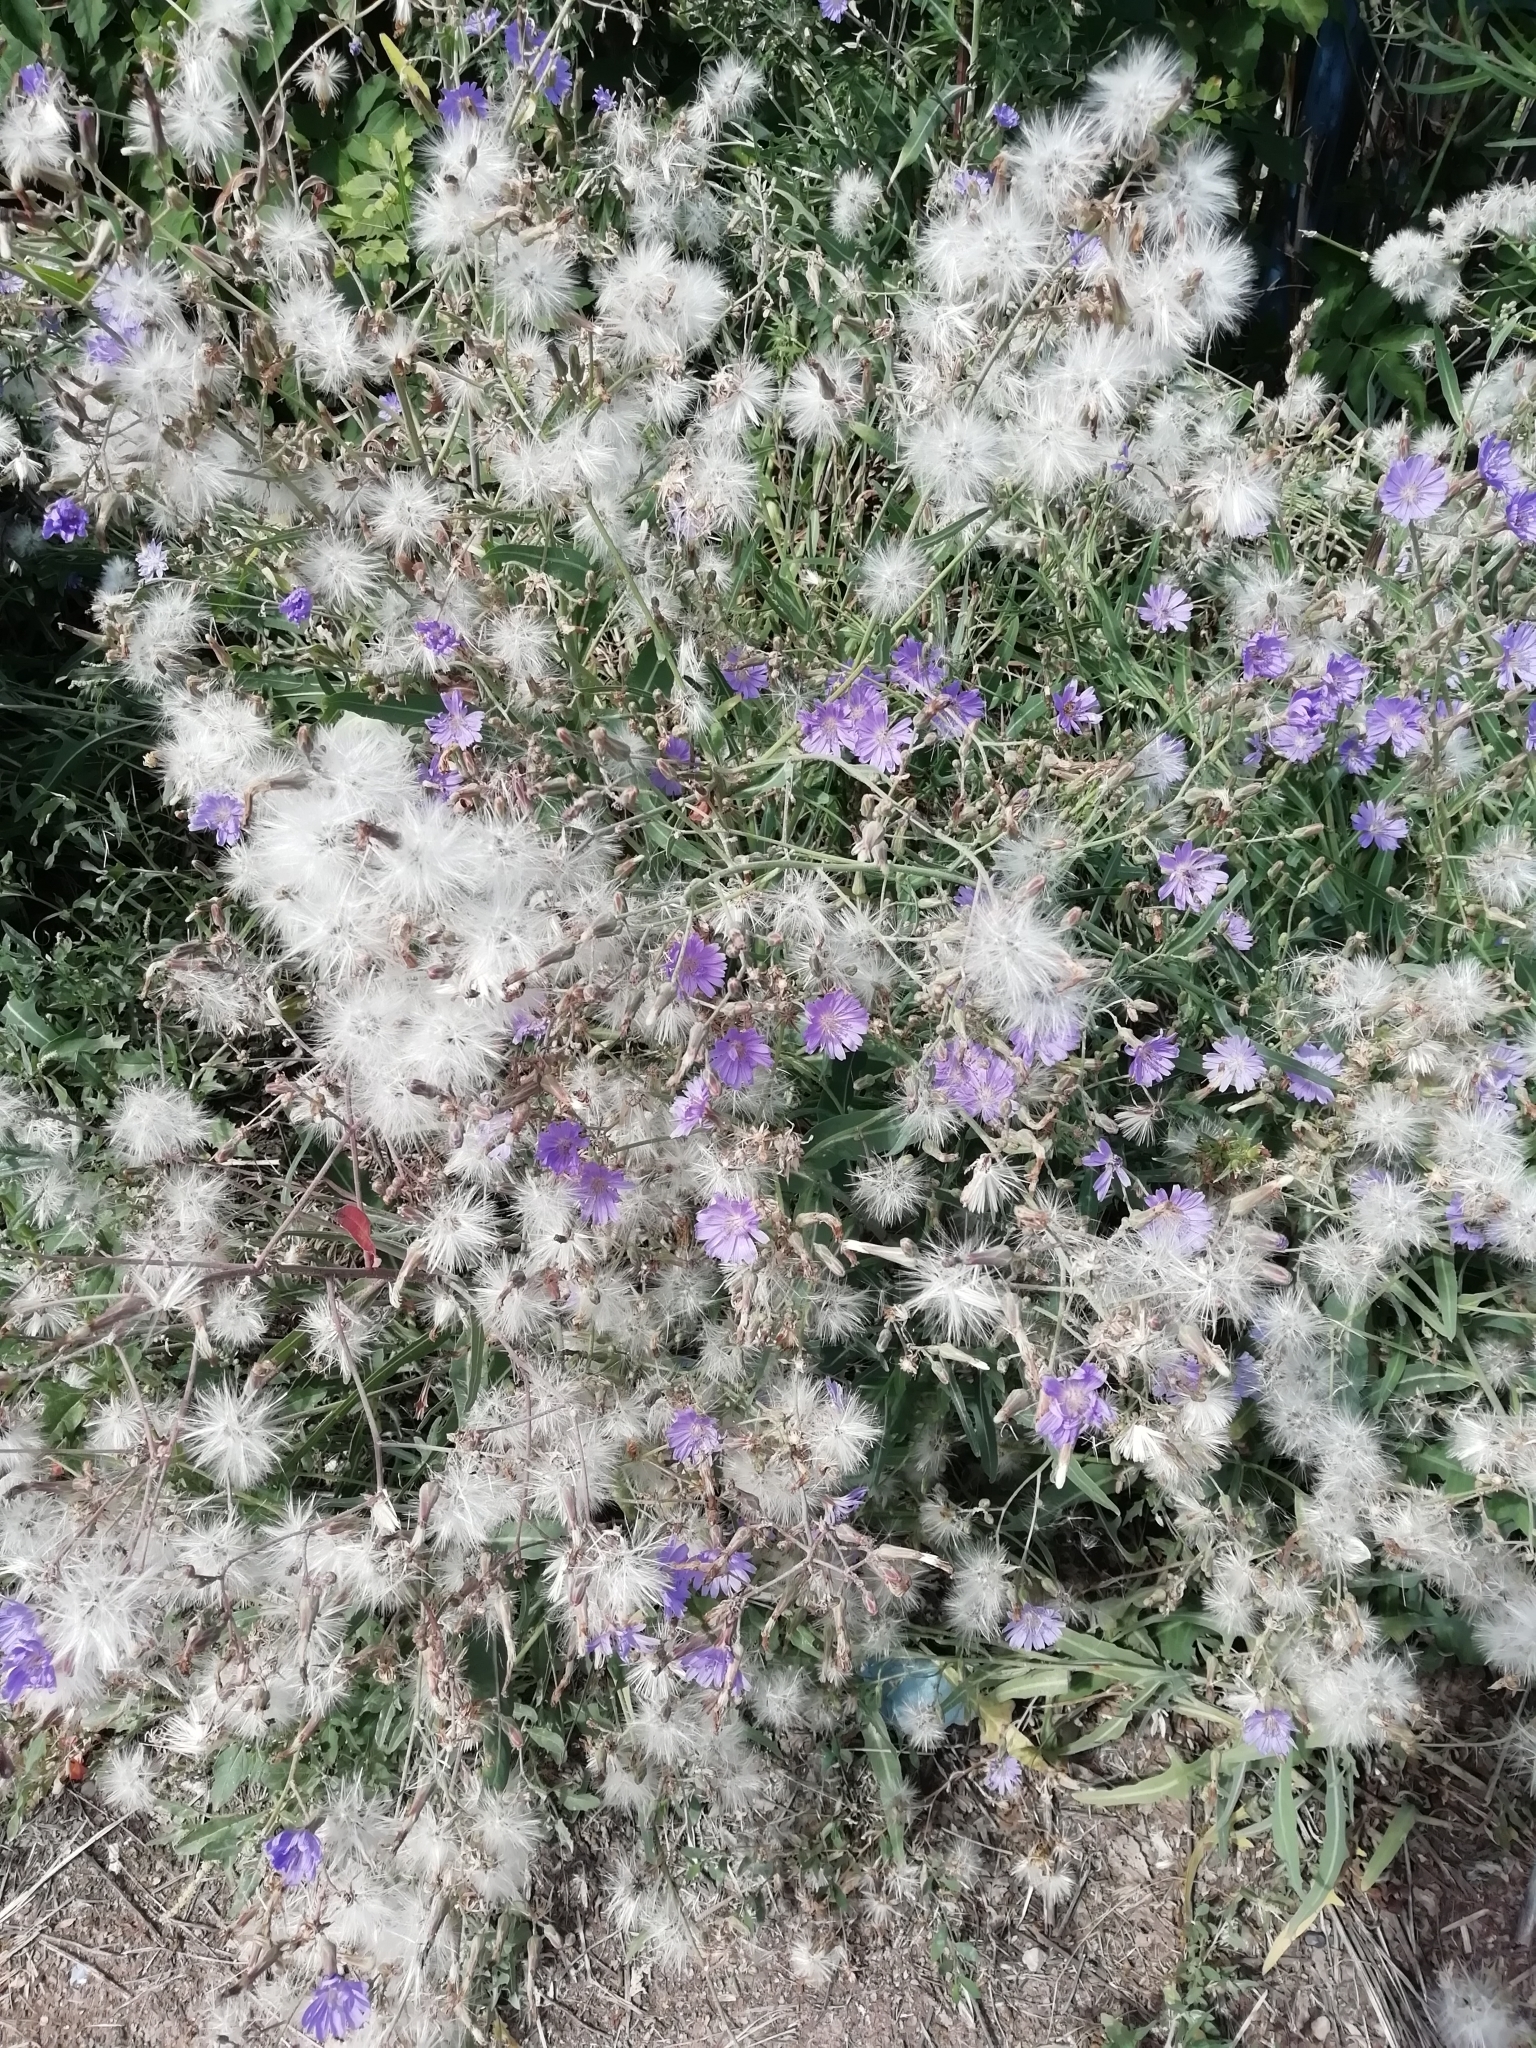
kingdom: Plantae
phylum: Tracheophyta
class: Magnoliopsida
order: Asterales
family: Asteraceae
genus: Lactuca
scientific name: Lactuca tatarica
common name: Blue lettuce
